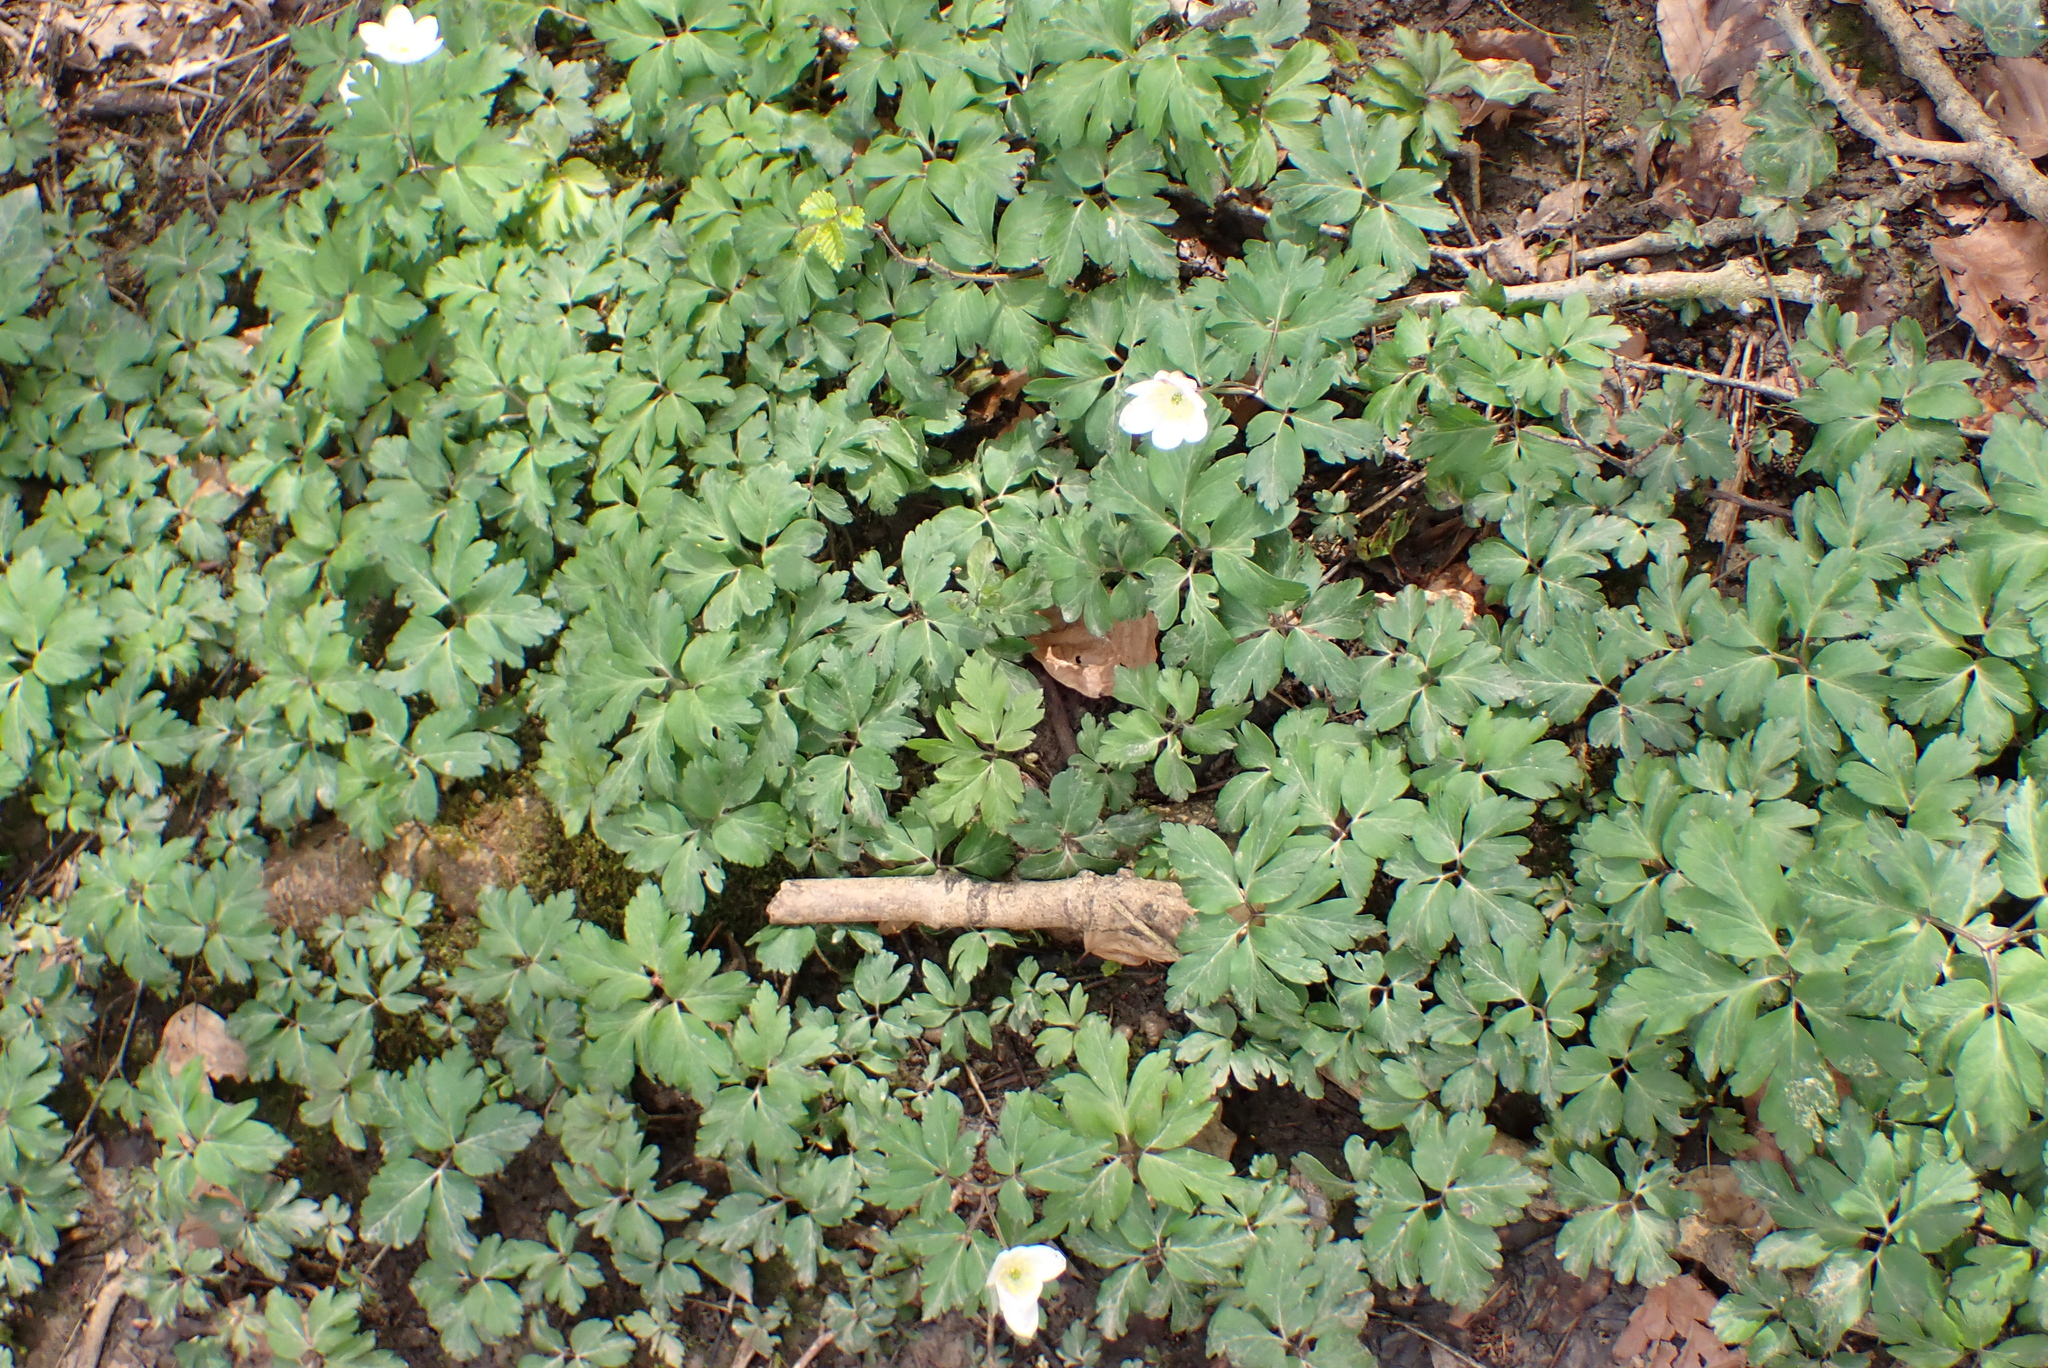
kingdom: Plantae
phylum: Tracheophyta
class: Magnoliopsida
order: Ranunculales
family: Ranunculaceae
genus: Anemone
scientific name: Anemone nemorosa
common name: Wood anemone
